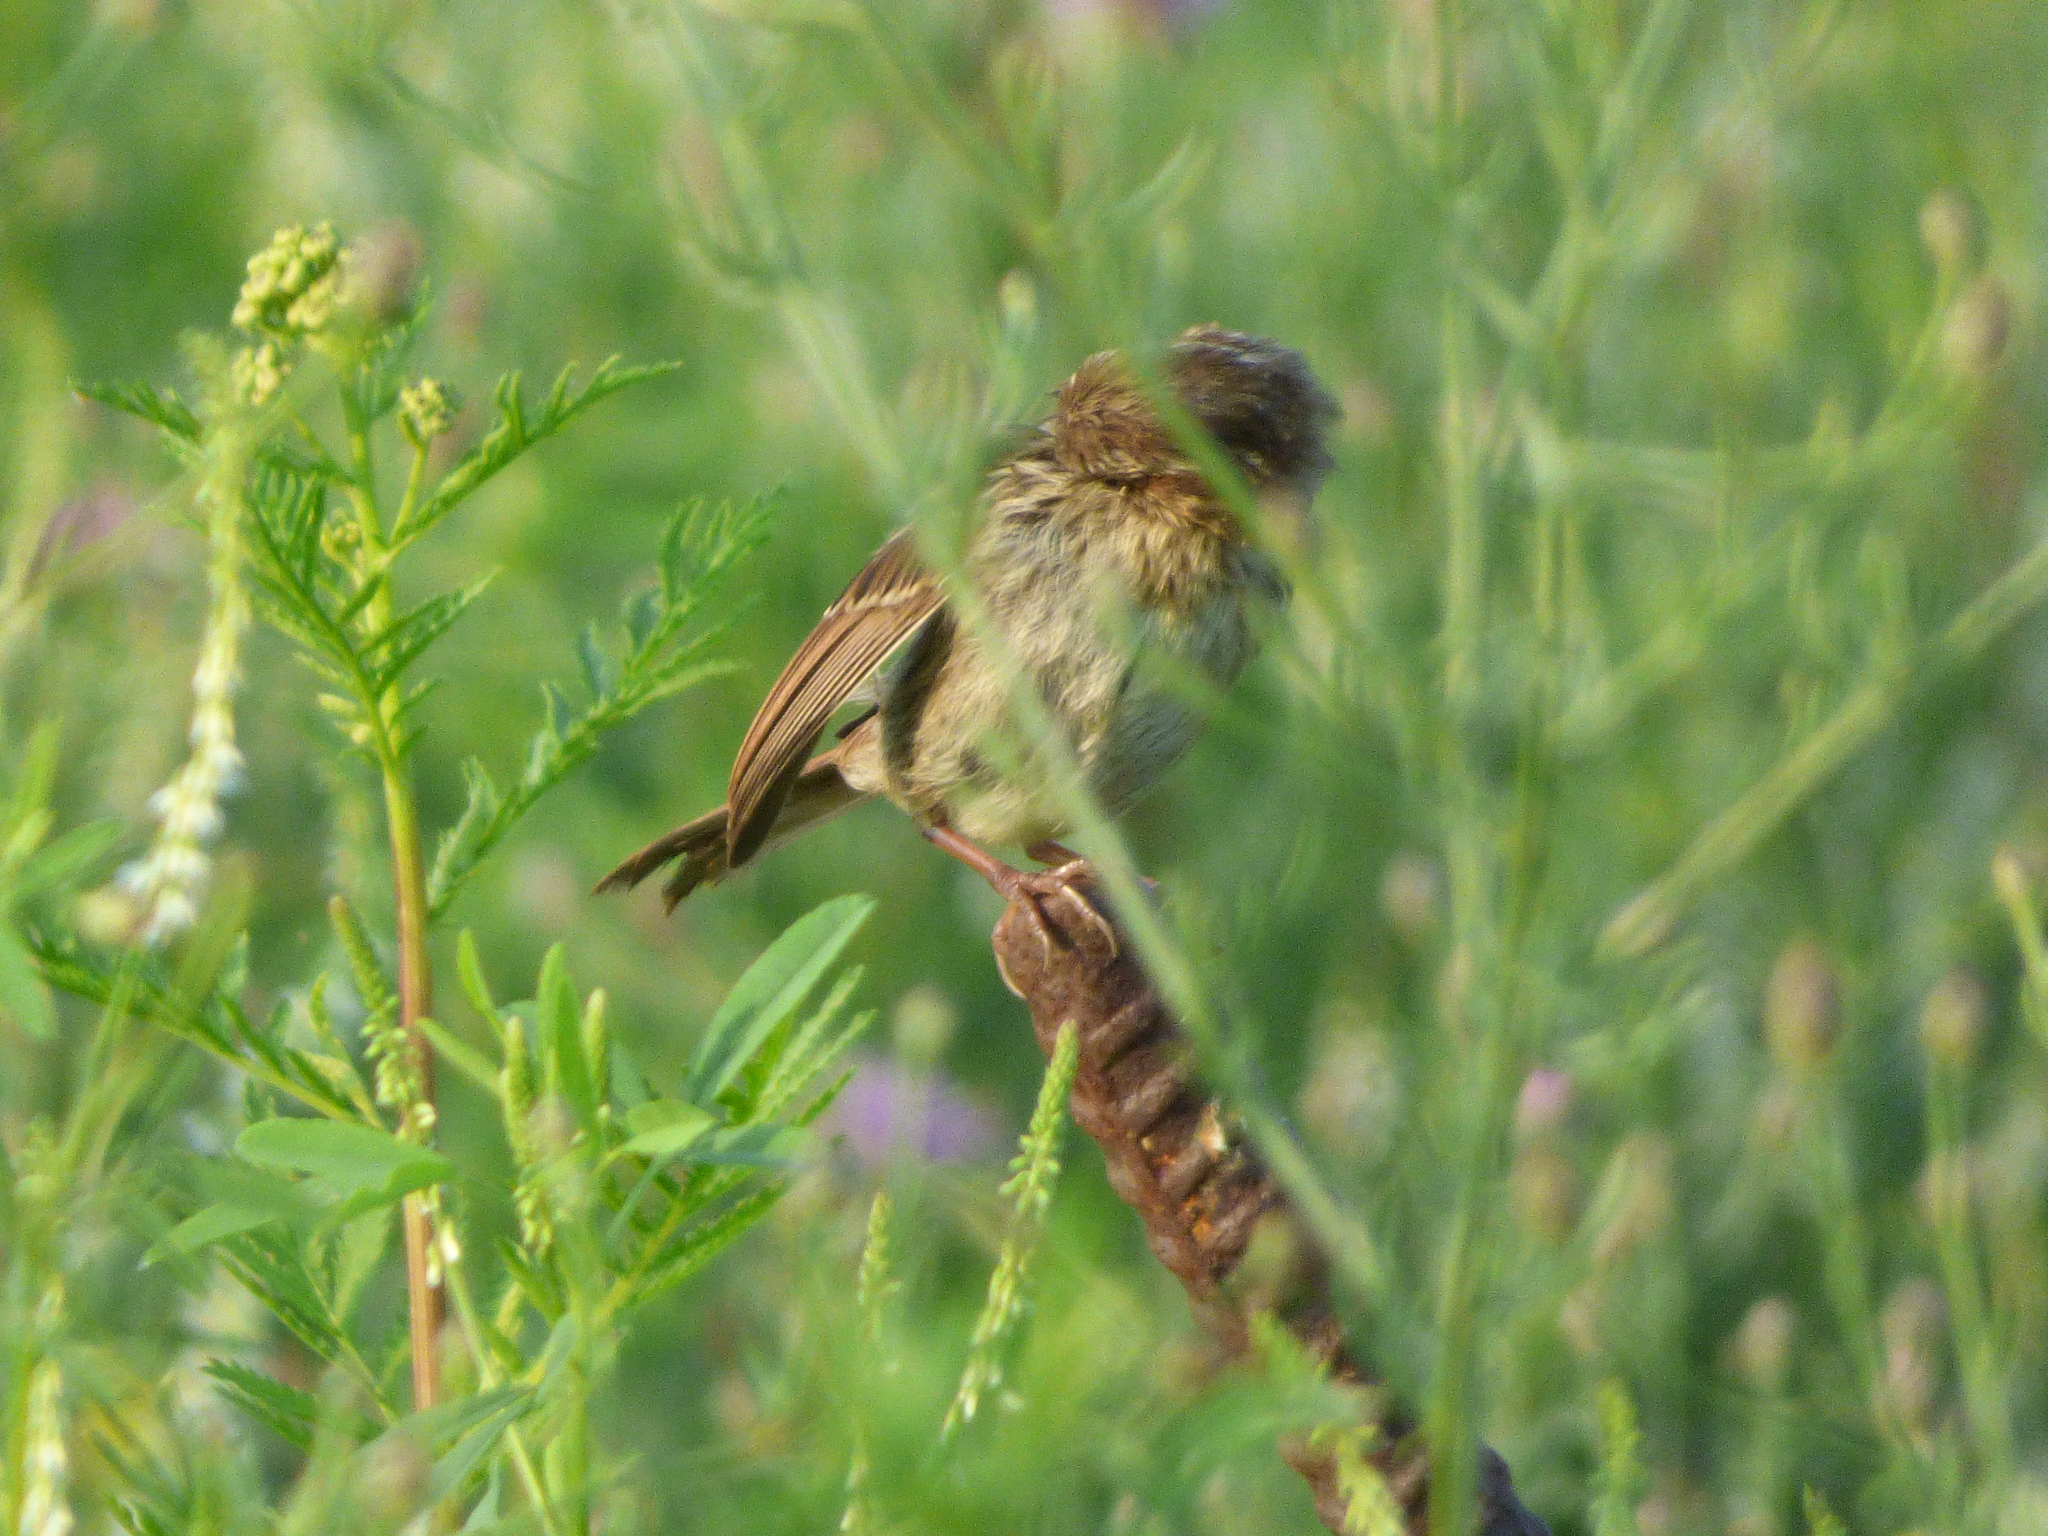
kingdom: Animalia
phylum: Chordata
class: Aves
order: Passeriformes
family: Passerellidae
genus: Melospiza
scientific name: Melospiza melodia
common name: Song sparrow
